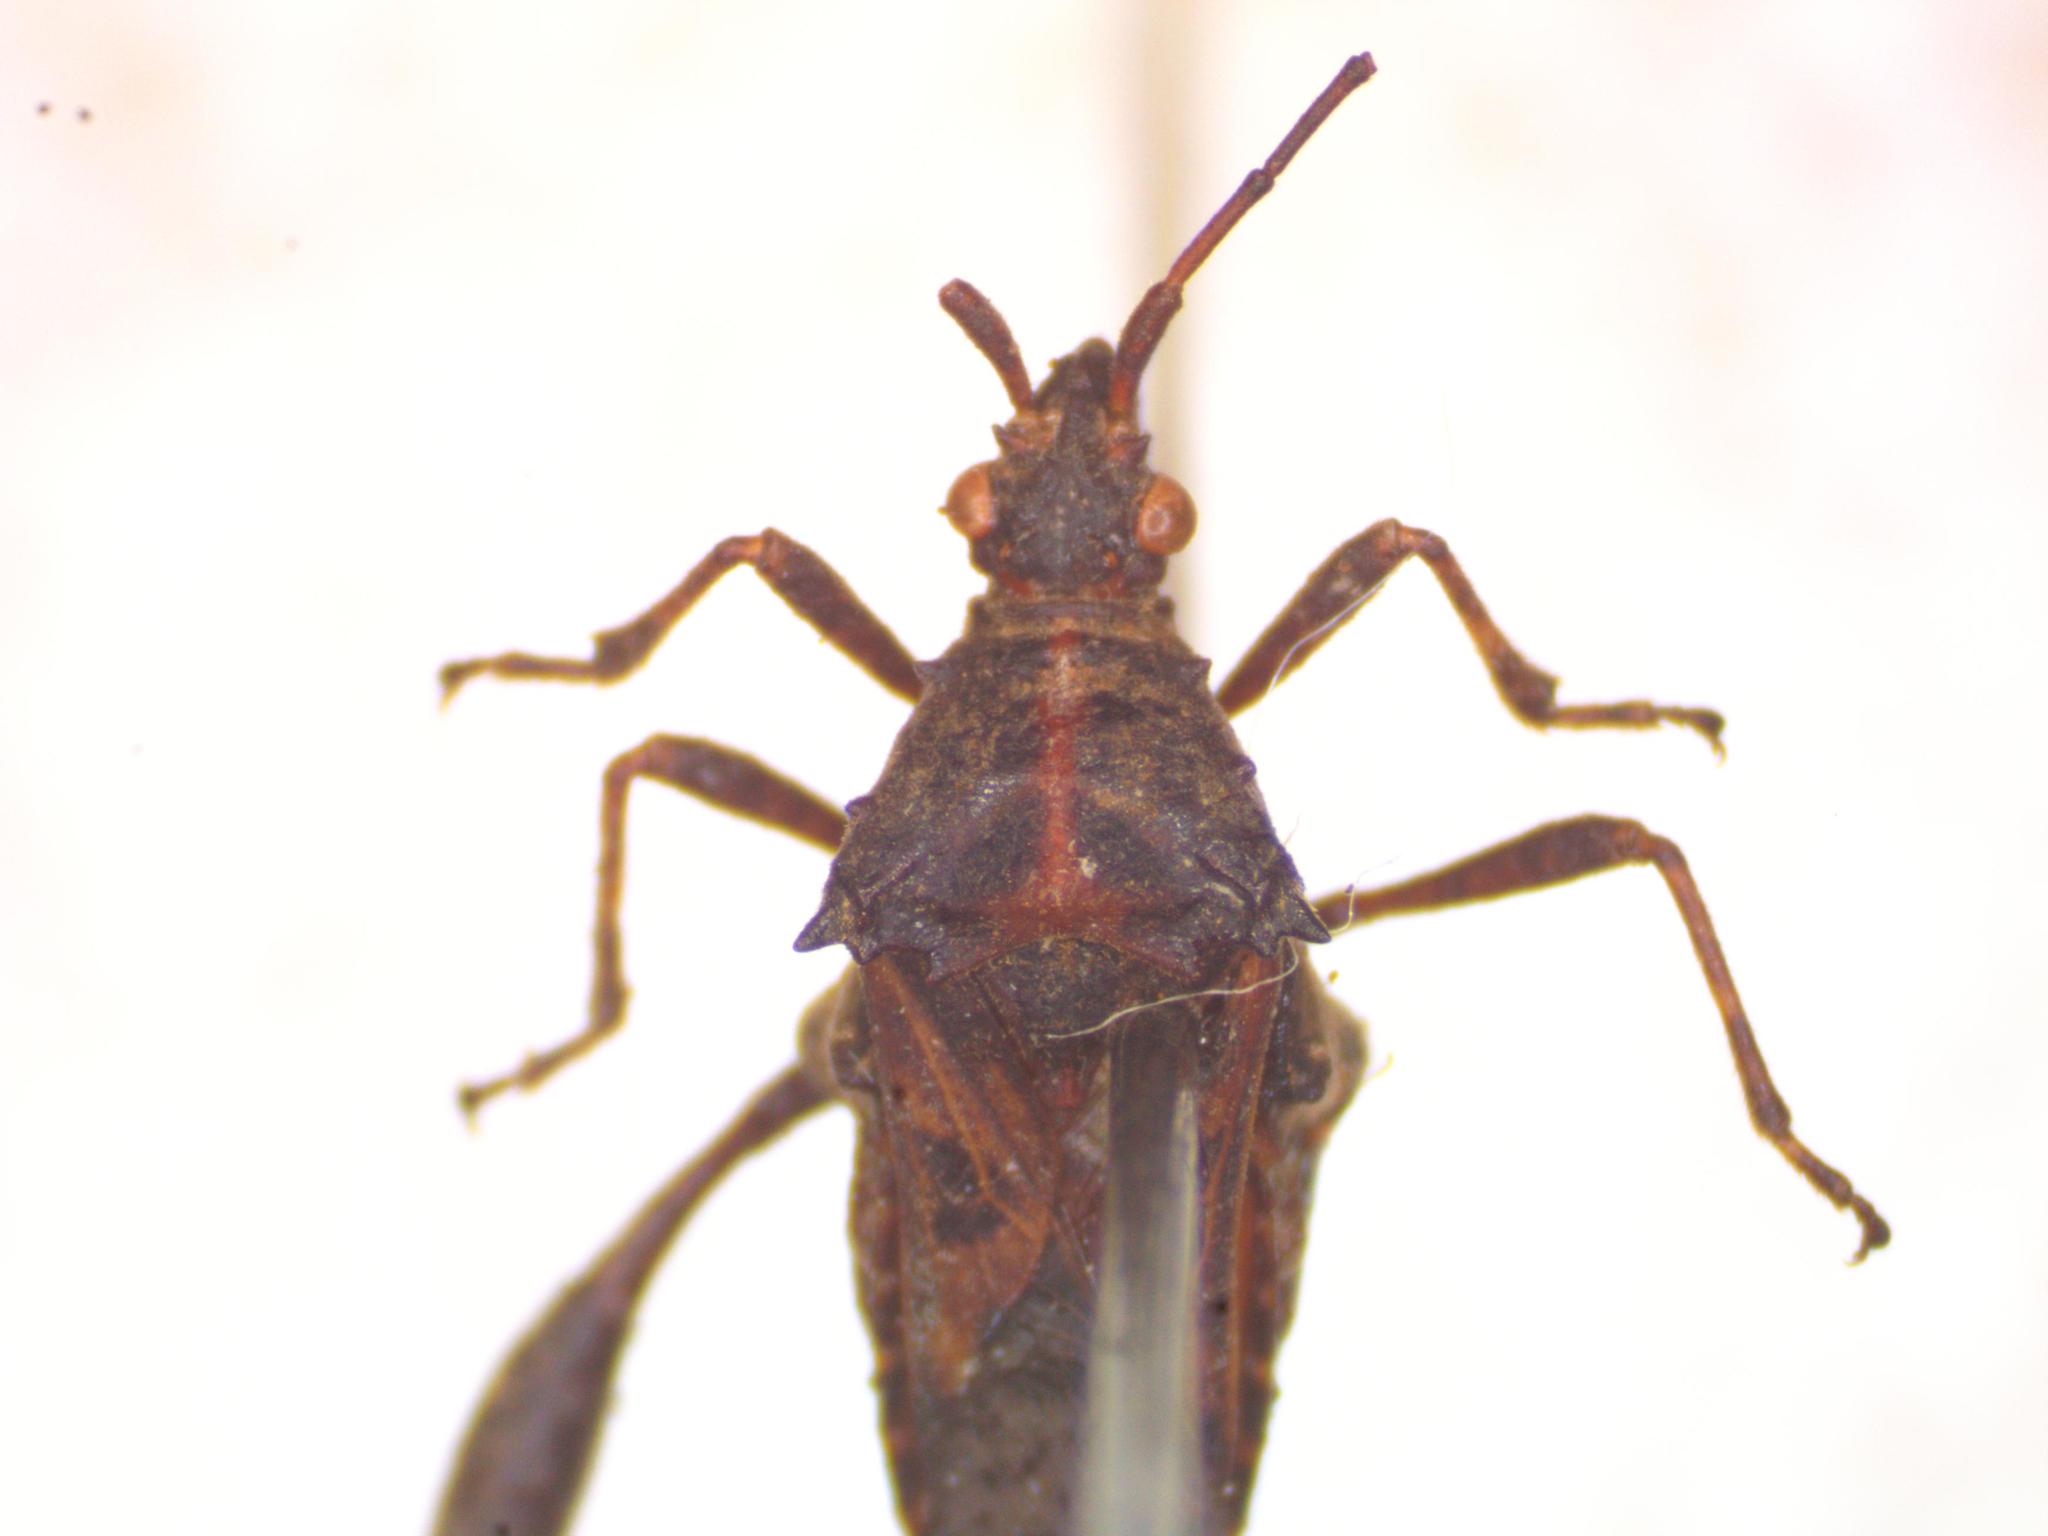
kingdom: Animalia
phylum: Arthropoda
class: Insecta
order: Hemiptera
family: Coreidae
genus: Merocoris
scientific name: Merocoris distinctus
